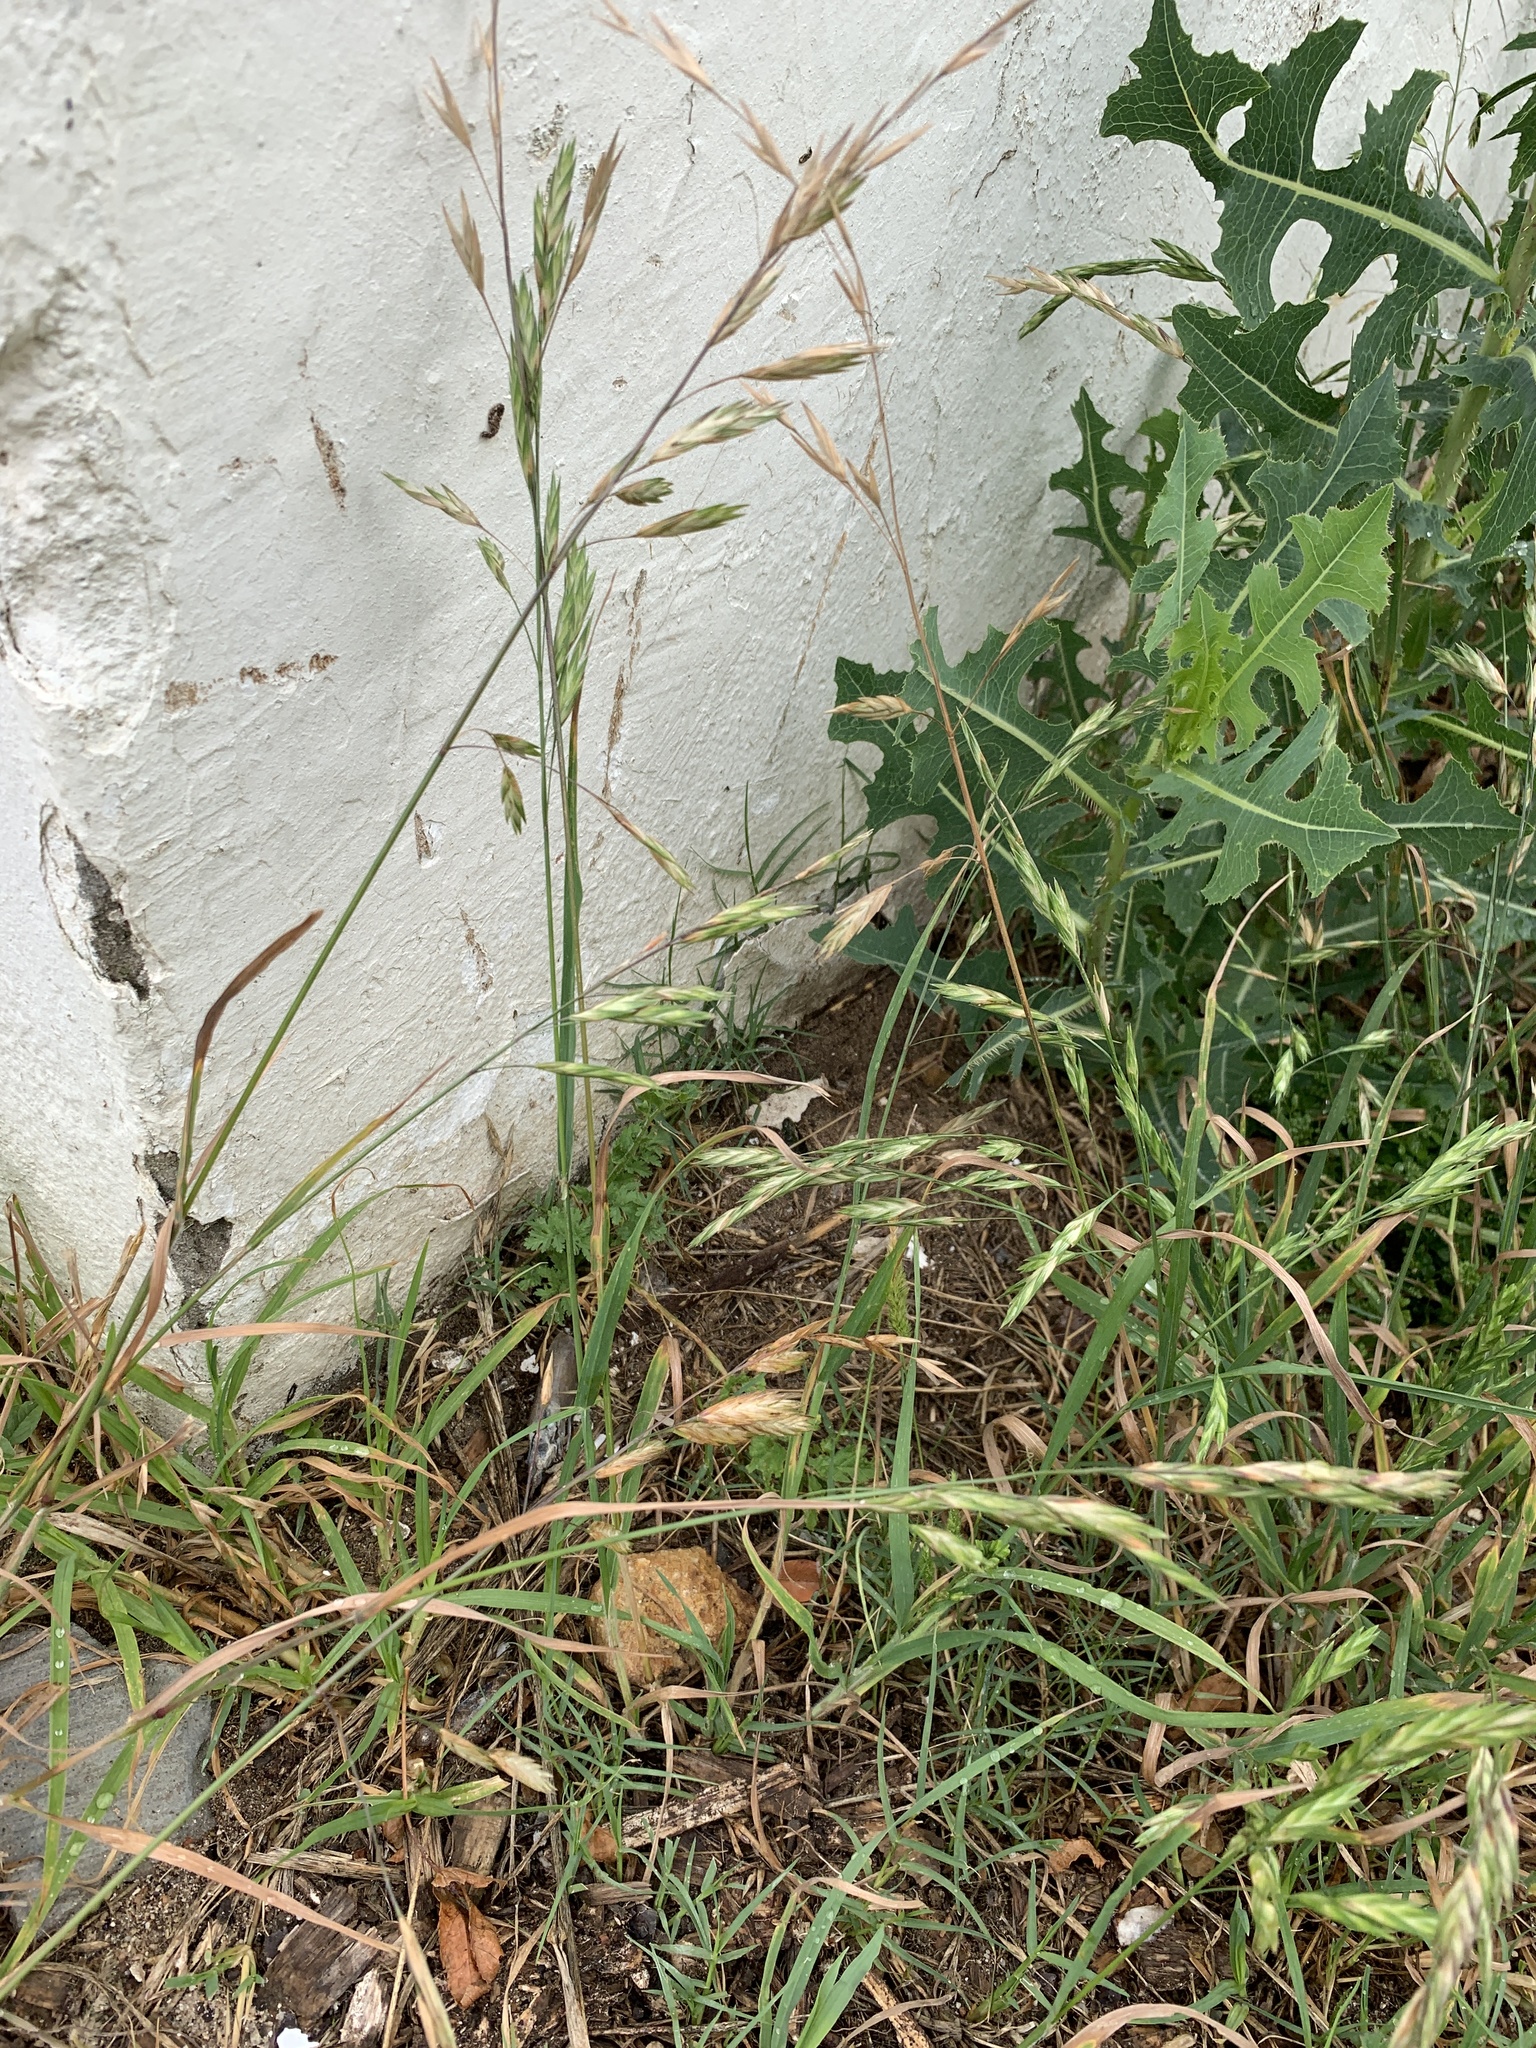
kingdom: Plantae
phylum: Tracheophyta
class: Liliopsida
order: Poales
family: Poaceae
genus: Bromus
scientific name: Bromus catharticus
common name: Rescuegrass
